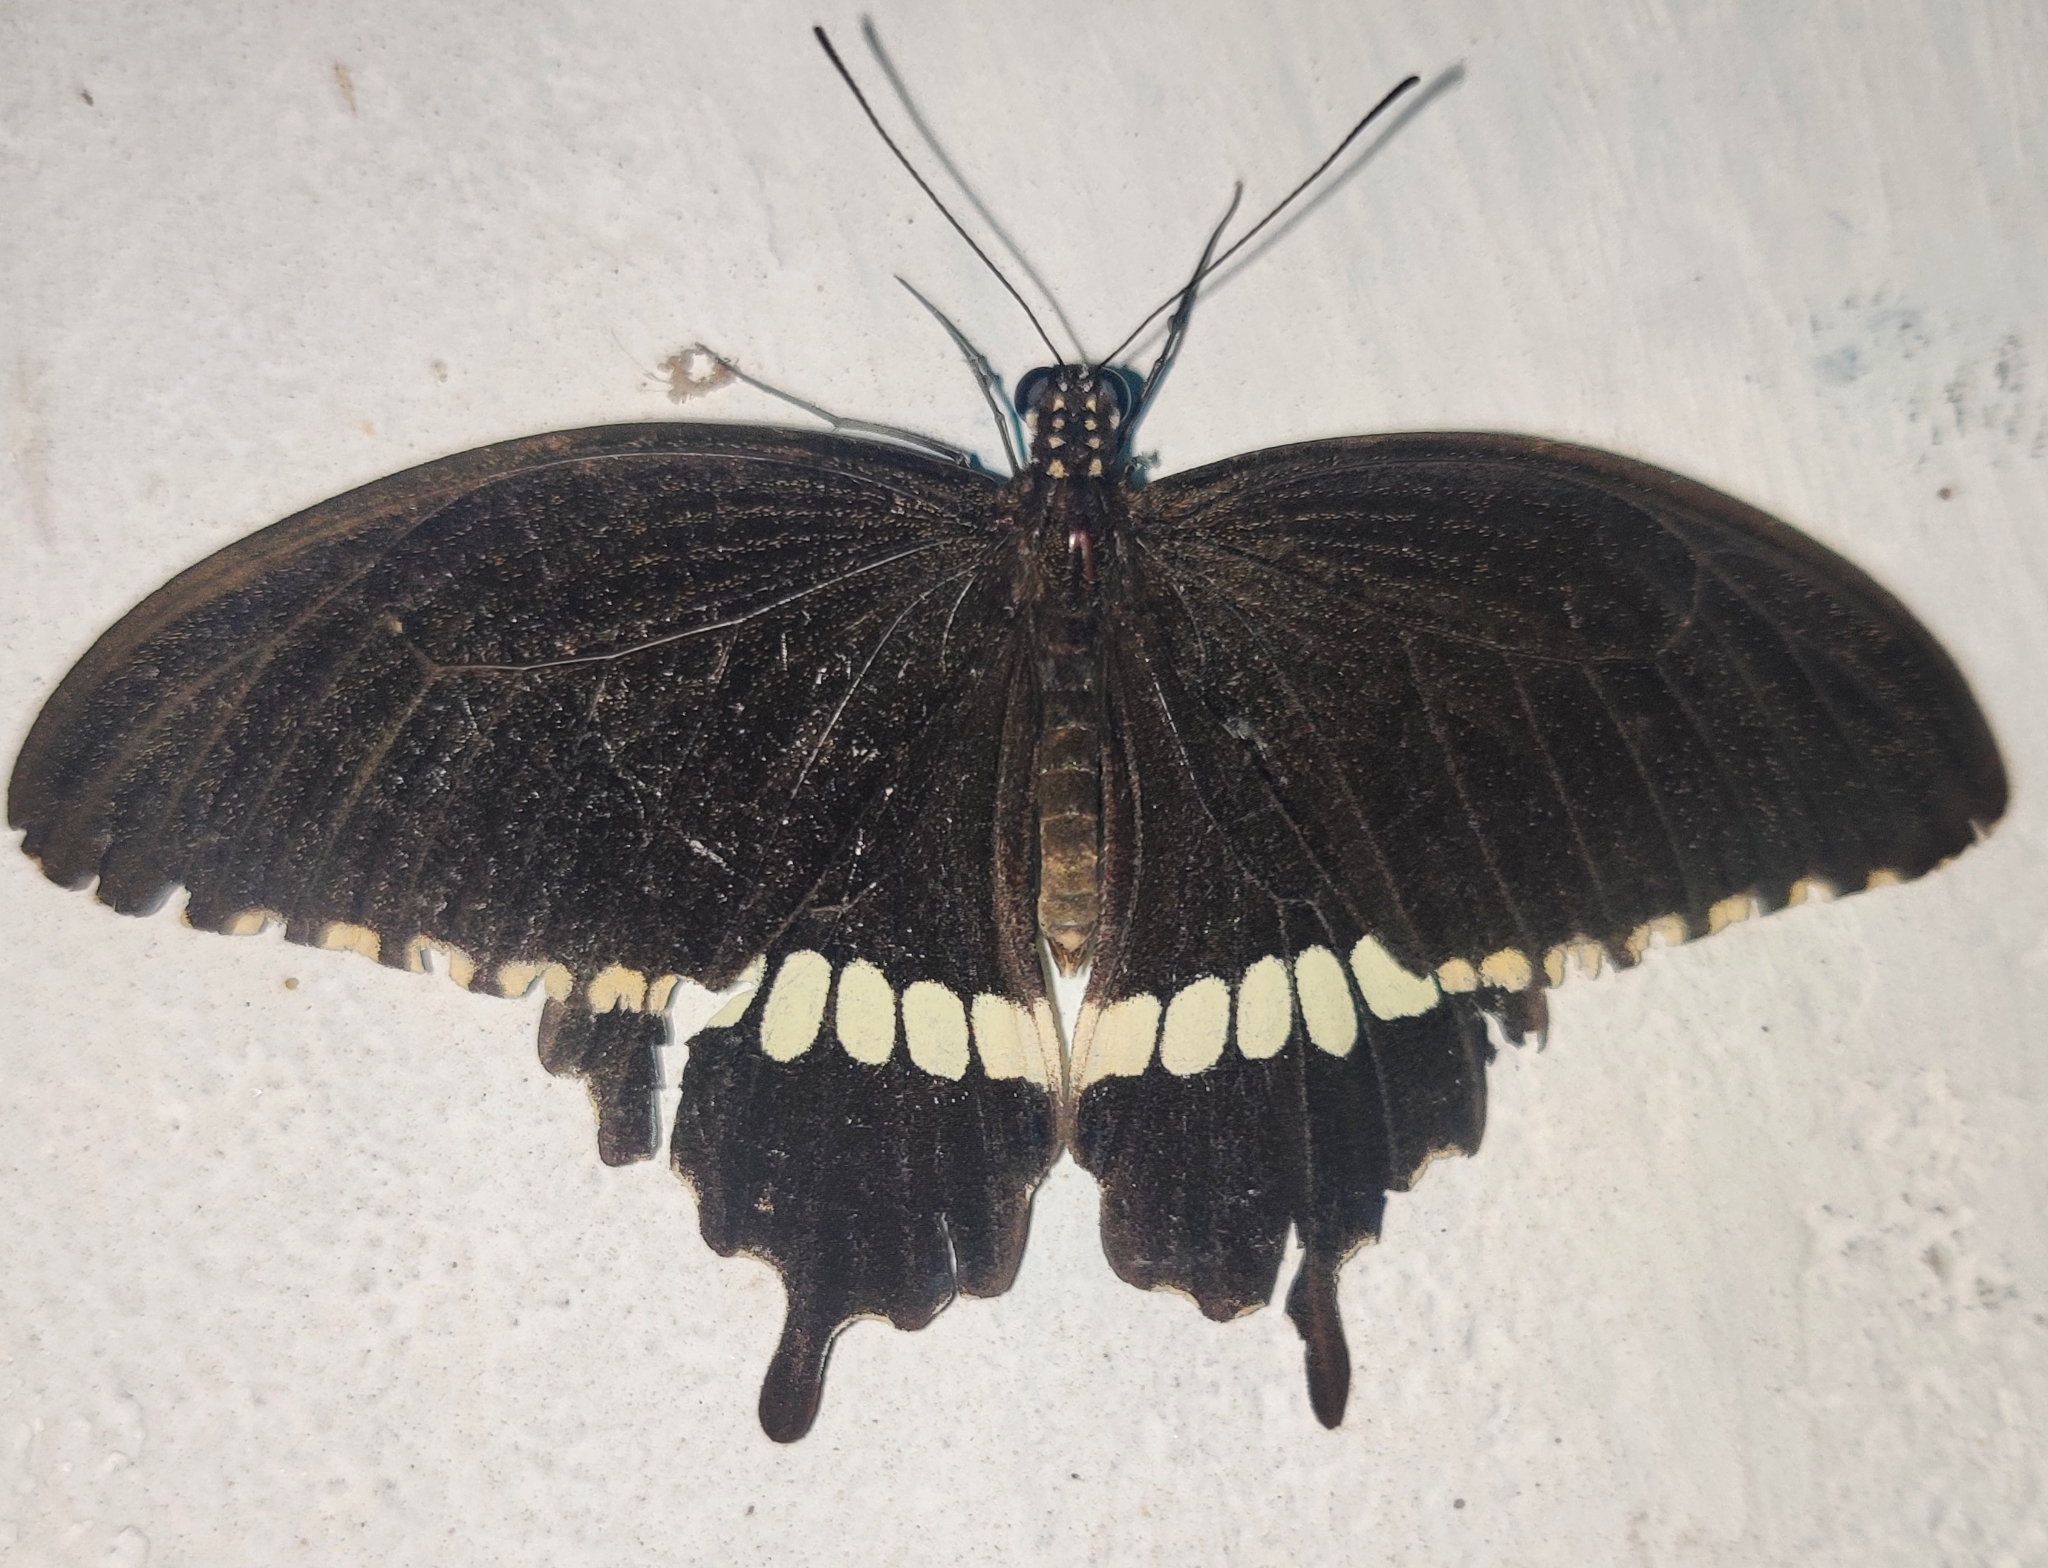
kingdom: Animalia
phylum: Arthropoda
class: Insecta
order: Lepidoptera
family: Papilionidae
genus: Papilio
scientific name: Papilio polytes
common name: Common mormon
